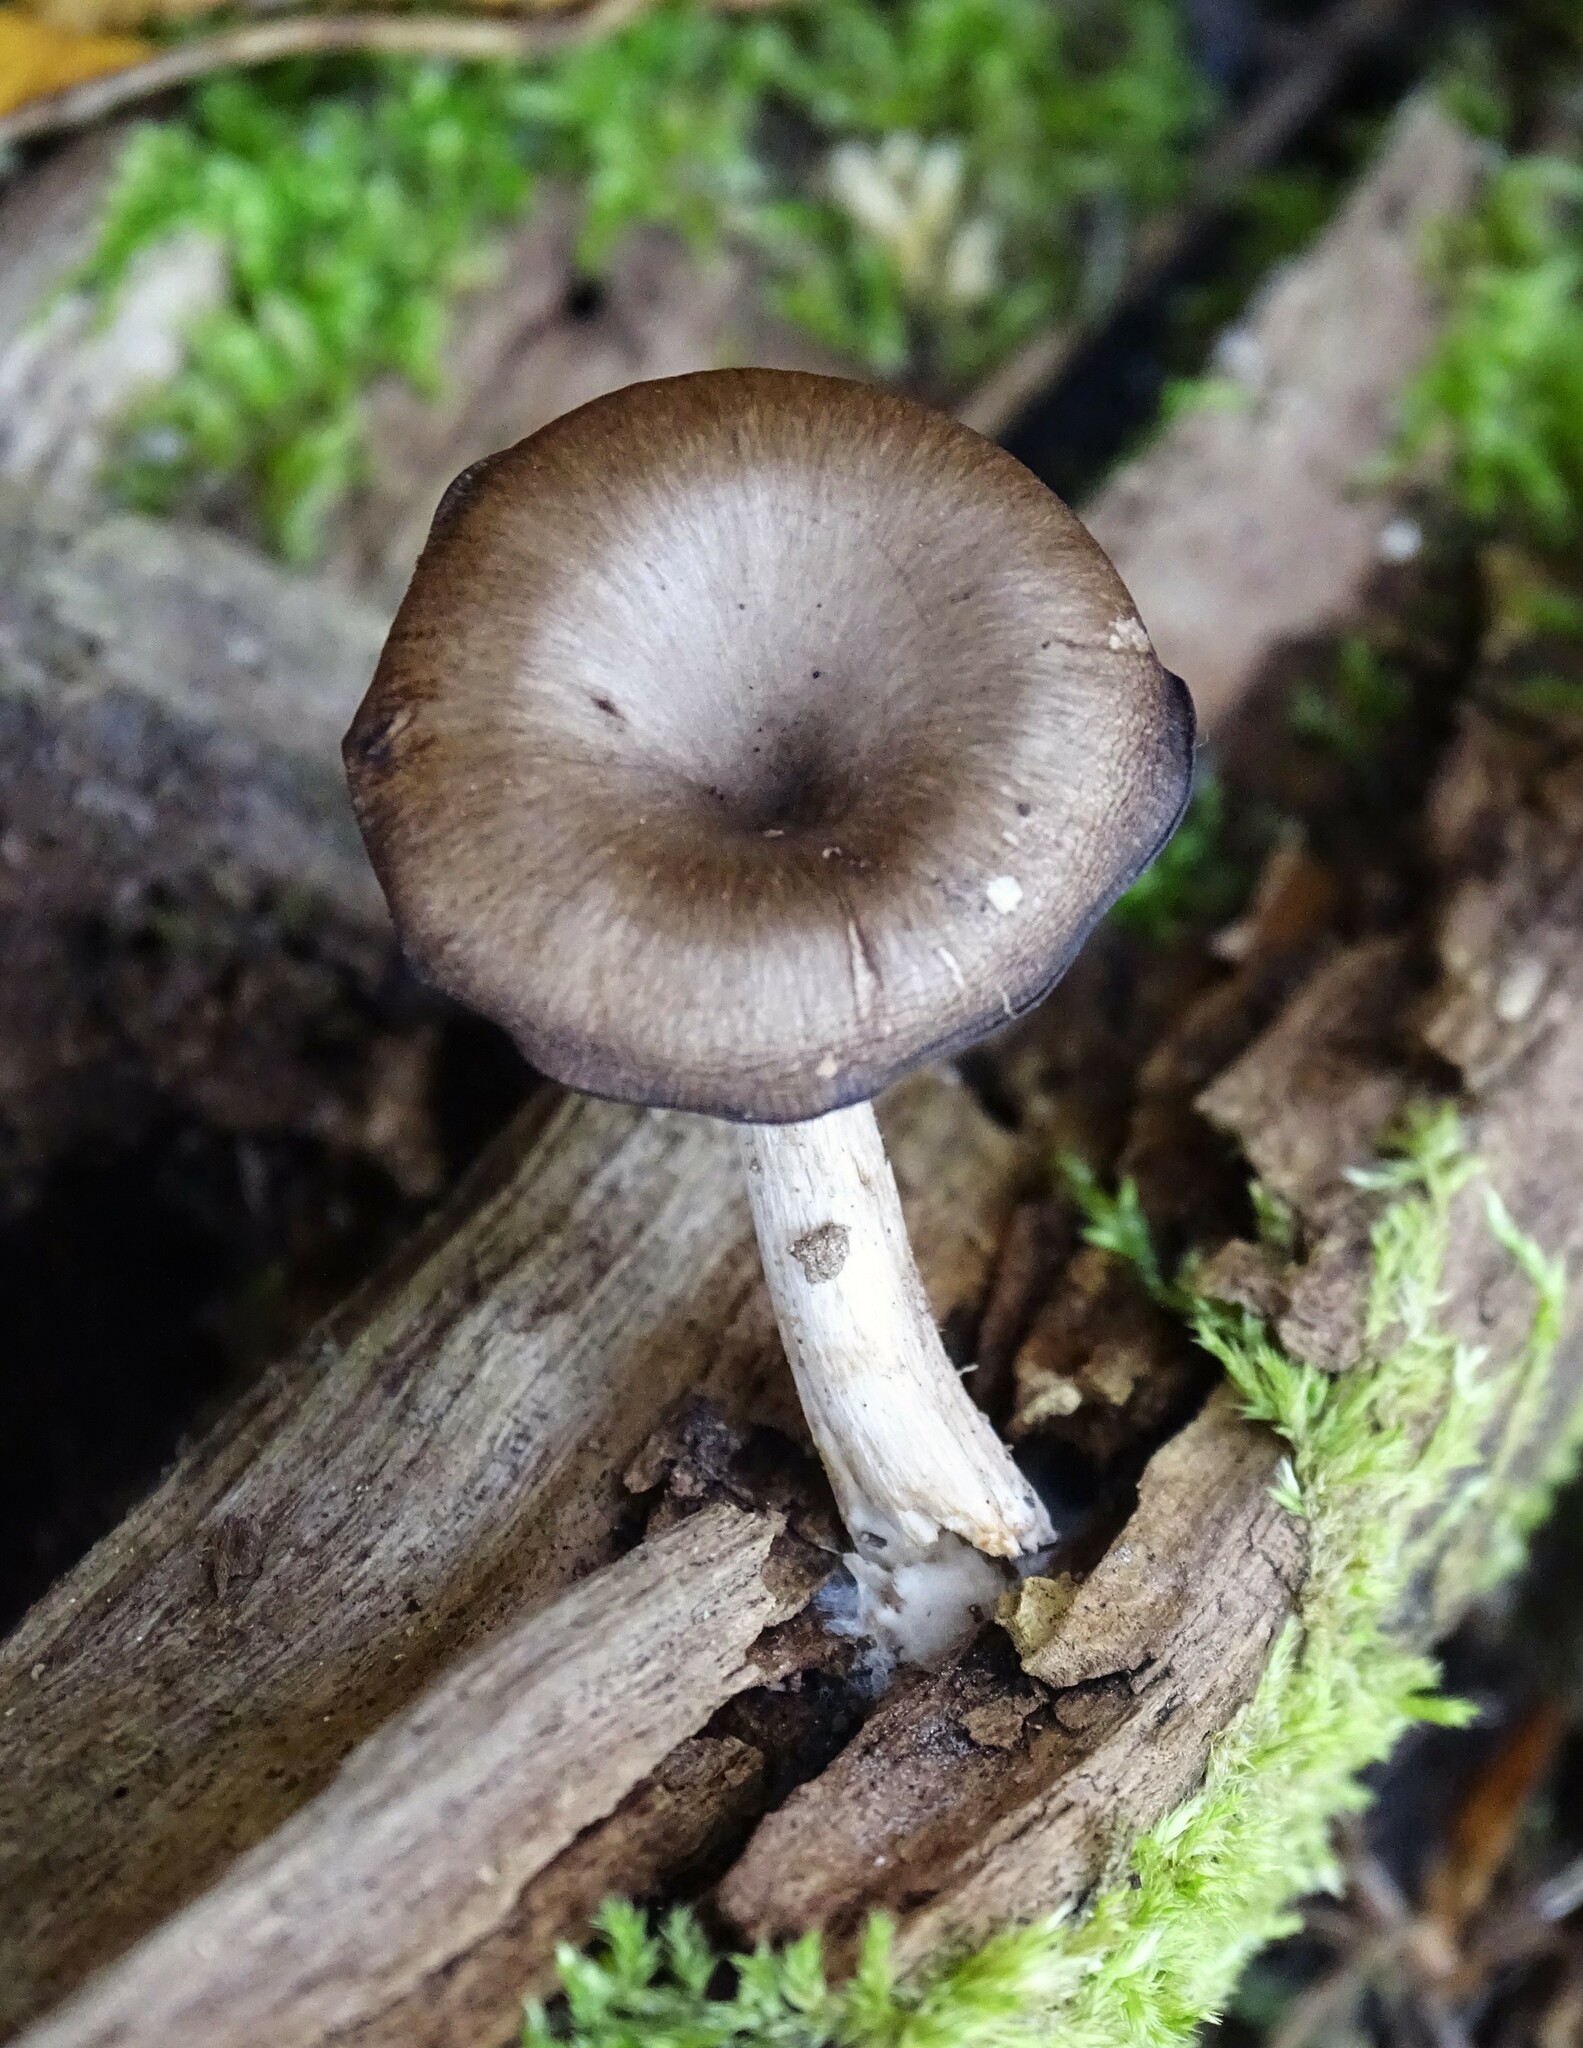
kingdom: Fungi
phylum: Basidiomycota
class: Agaricomycetes
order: Agaricales
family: Hygrophoraceae
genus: Arrhenia
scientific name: Arrhenia epichysium
